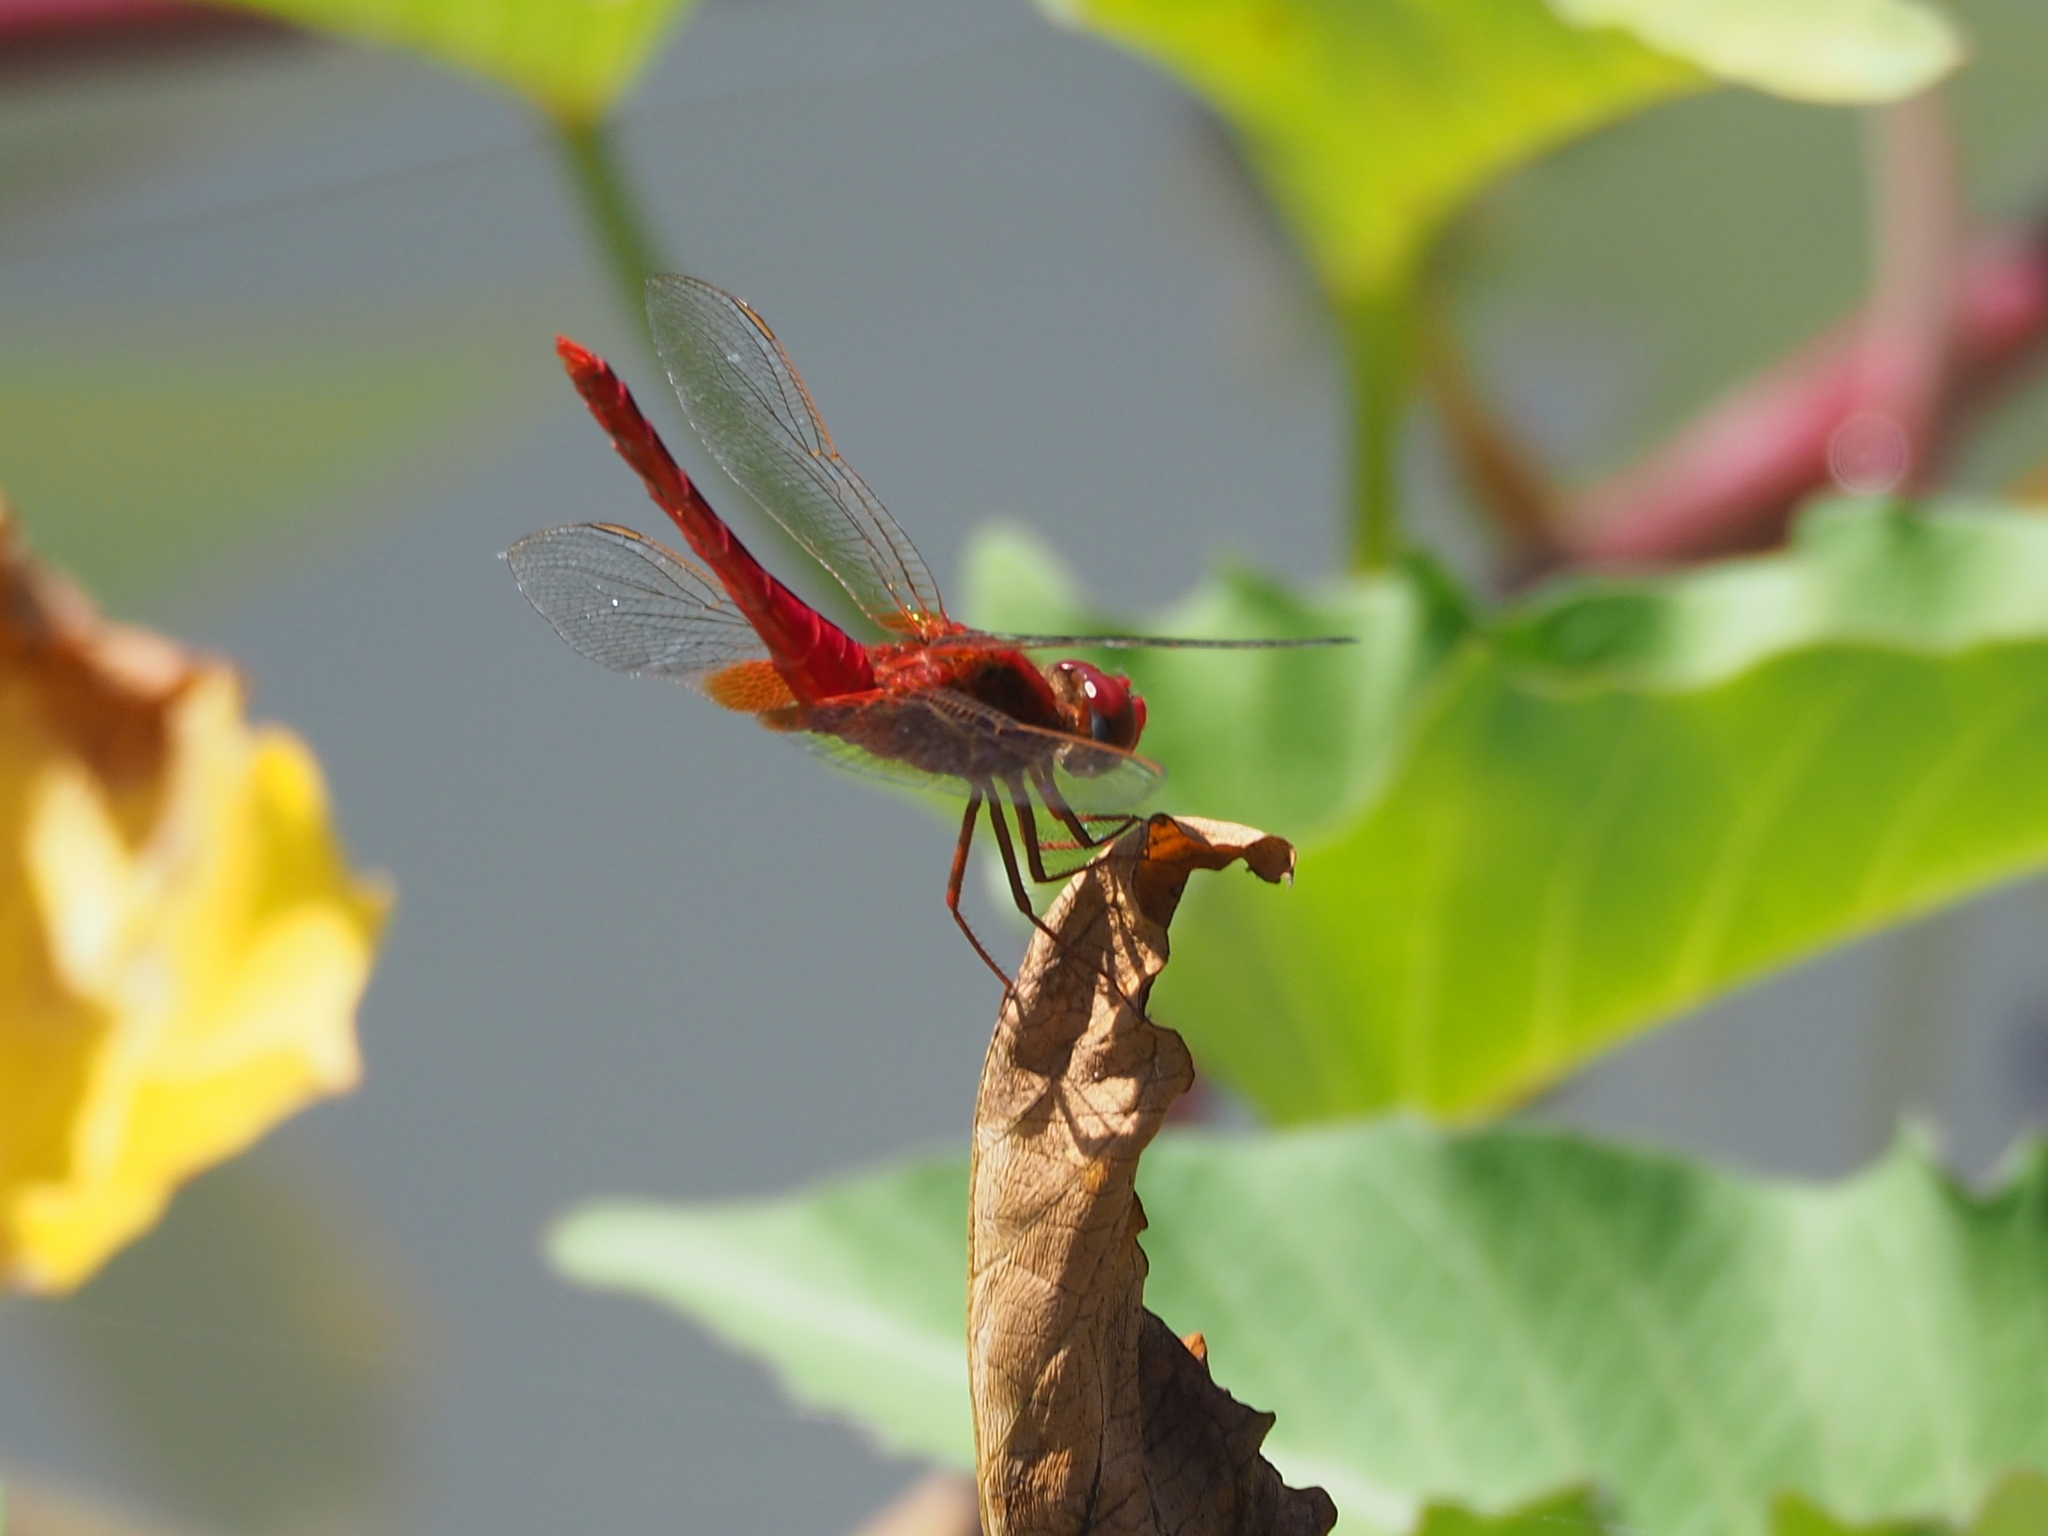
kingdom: Animalia
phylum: Arthropoda
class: Insecta
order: Odonata
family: Libellulidae
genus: Crocothemis
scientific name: Crocothemis servilia
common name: Scarlet skimmer
